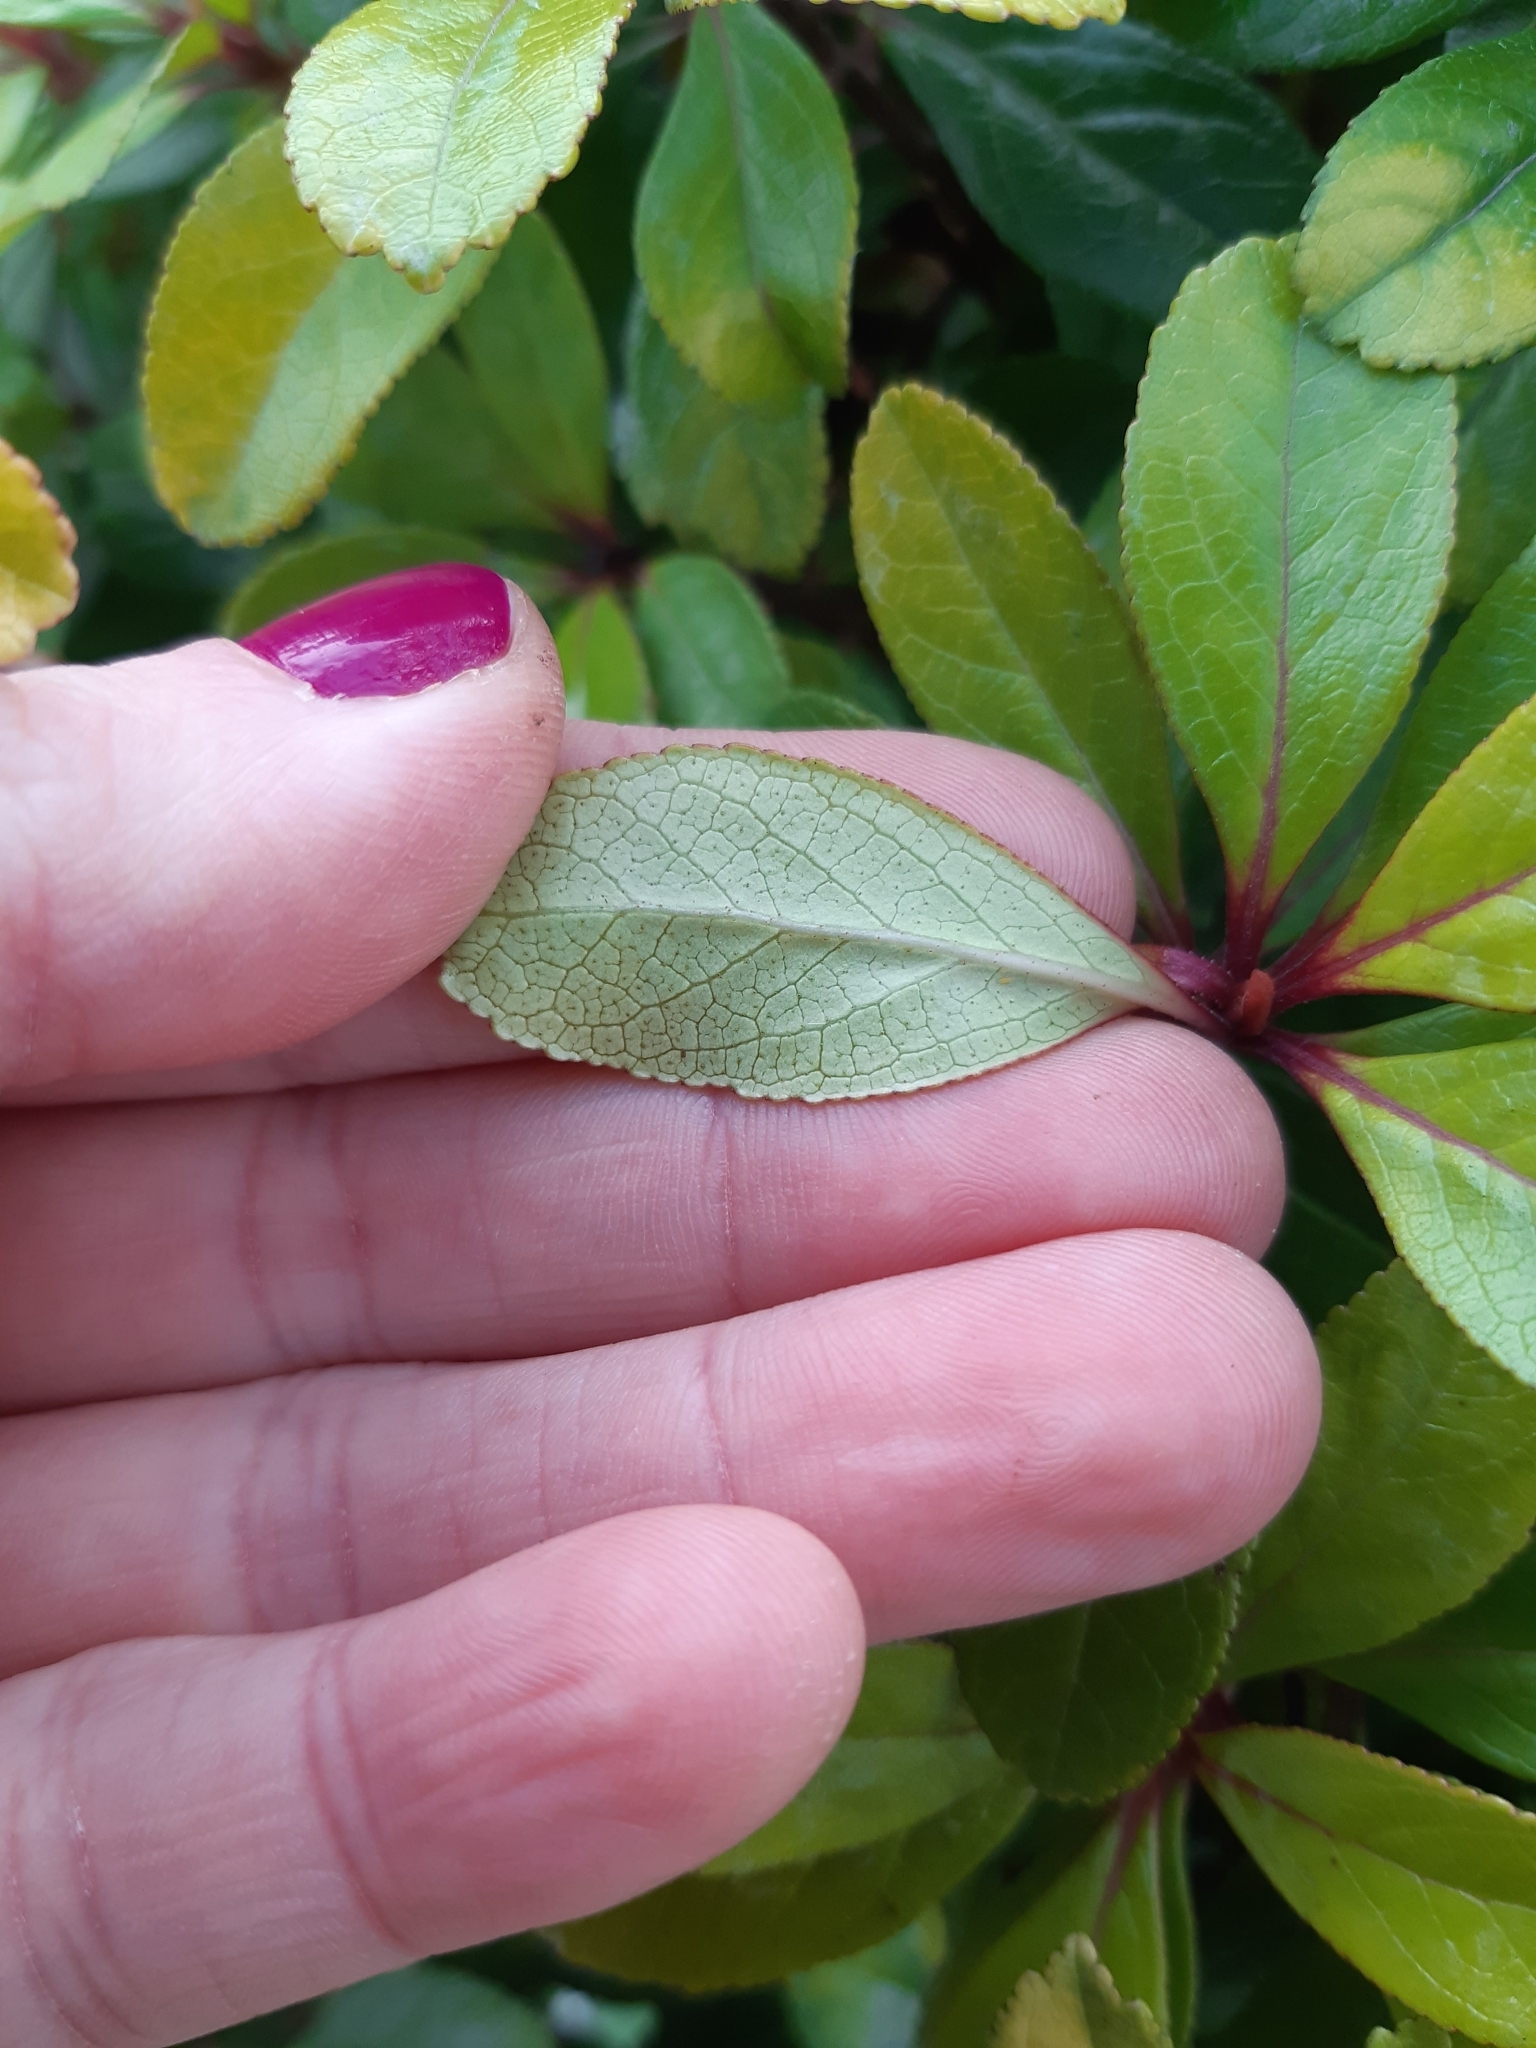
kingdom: Plantae
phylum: Tracheophyta
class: Magnoliopsida
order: Escalloniales
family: Escalloniaceae
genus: Escallonia
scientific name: Escallonia rubra
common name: Redclaws
